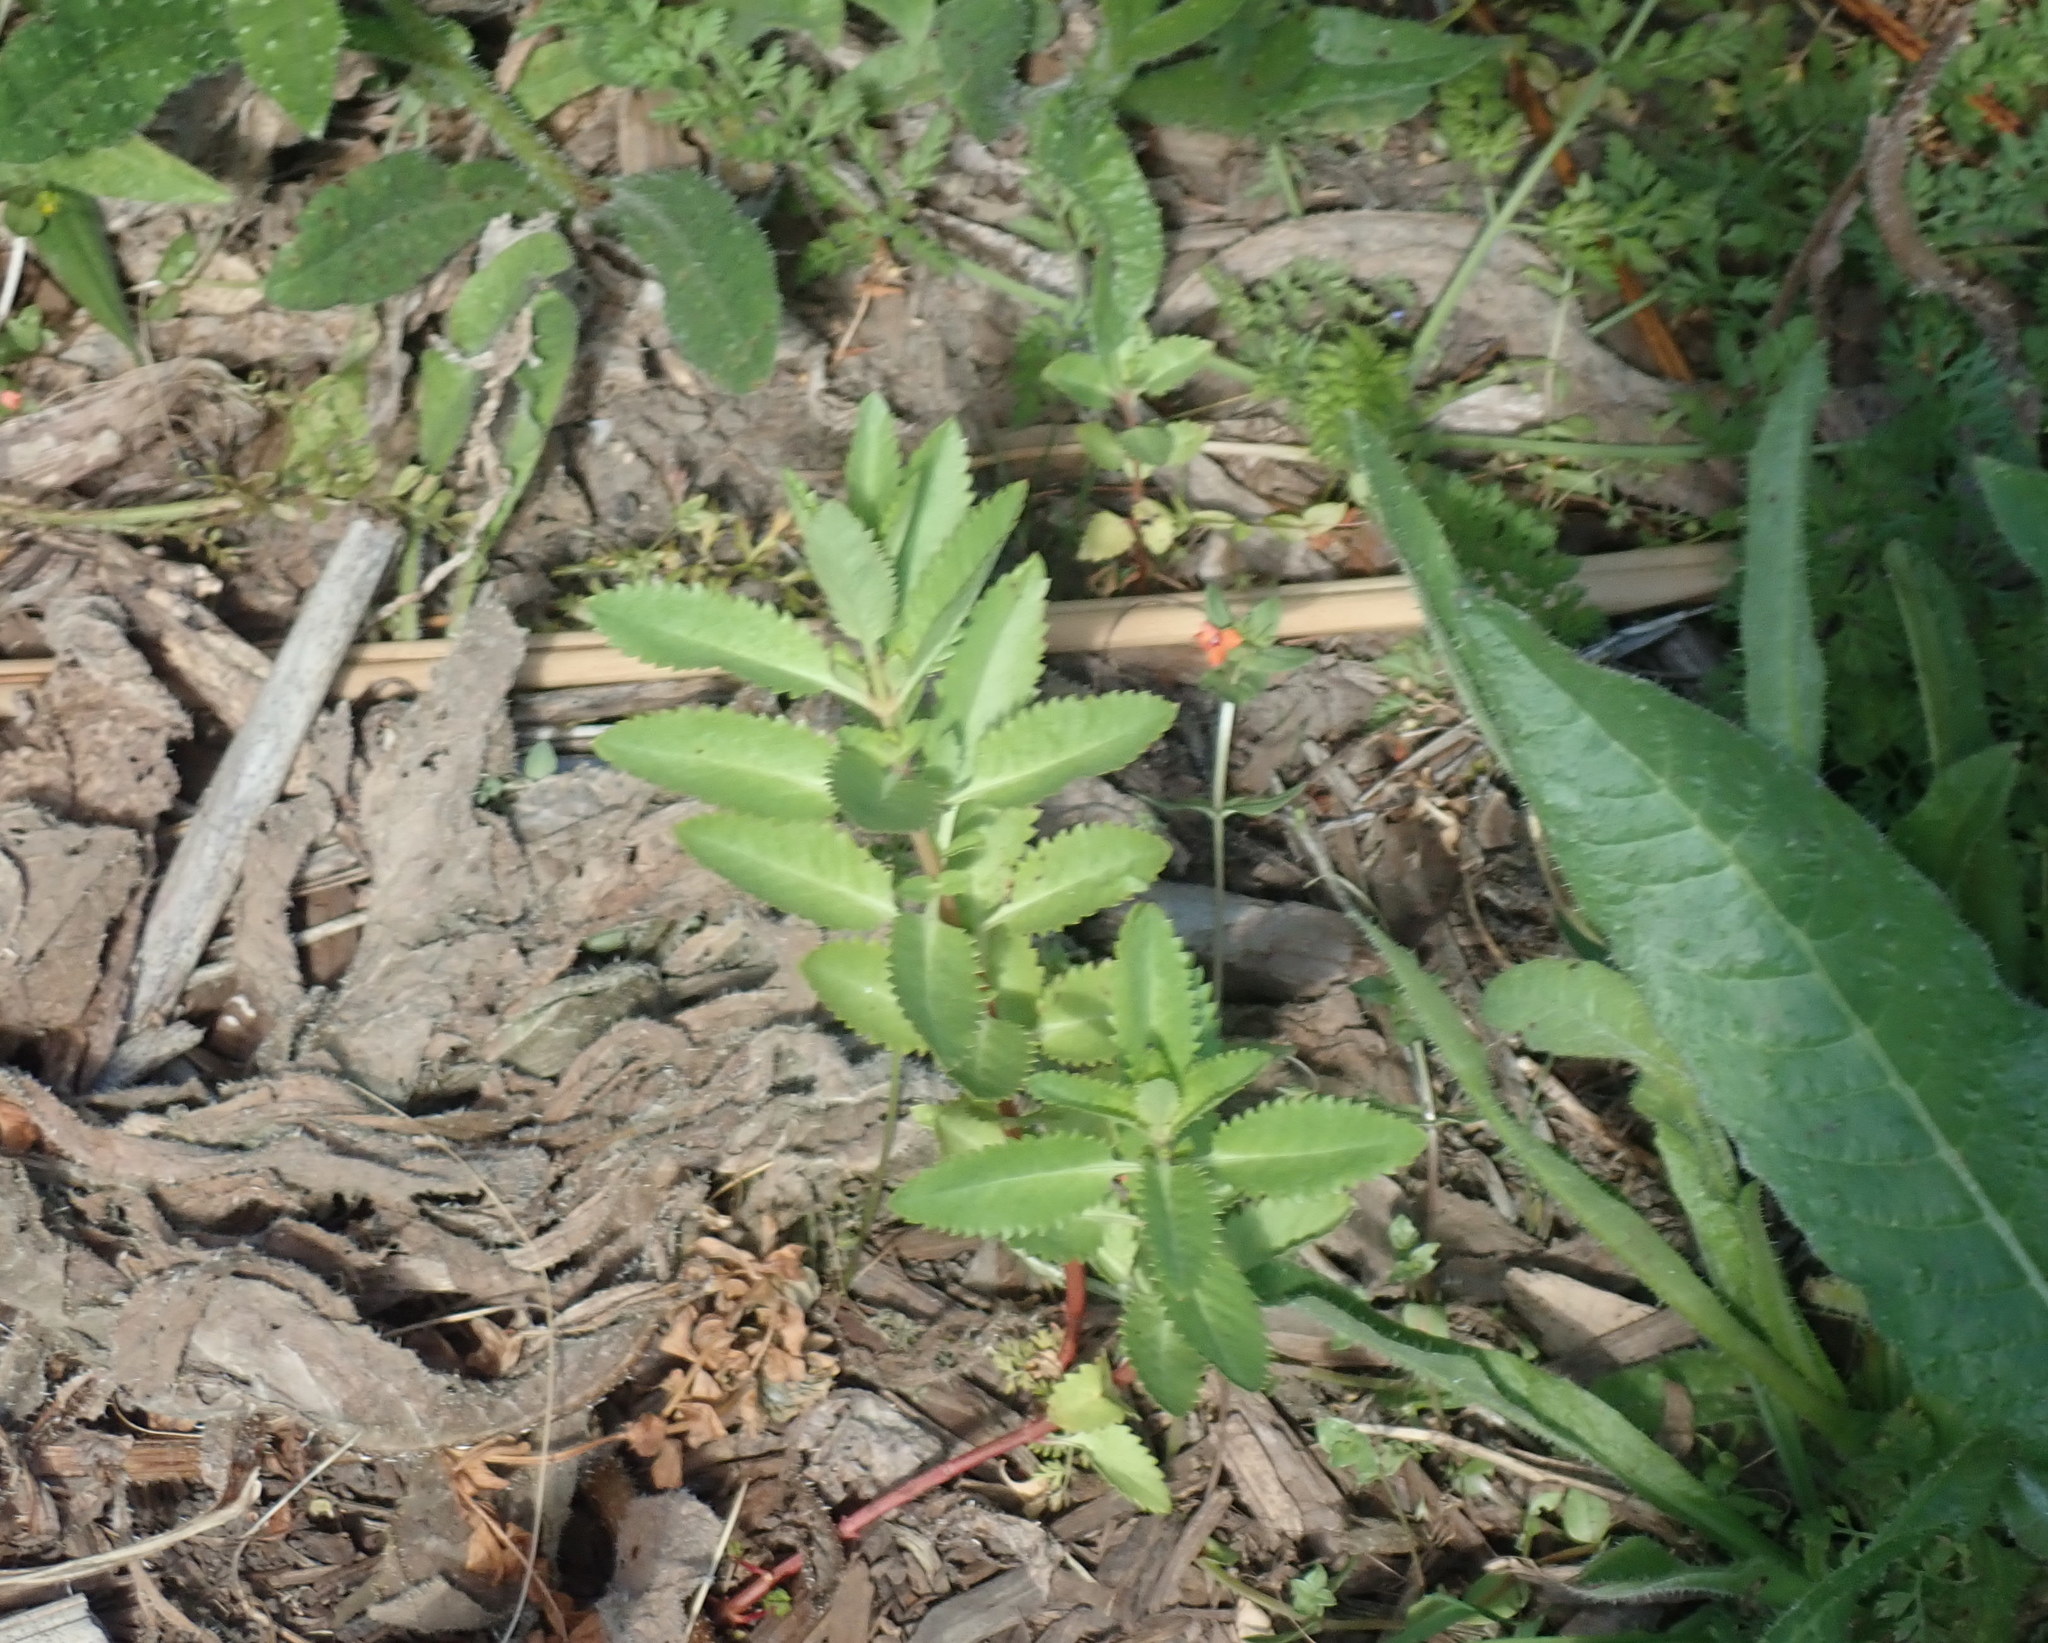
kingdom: Plantae
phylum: Tracheophyta
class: Magnoliopsida
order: Saxifragales
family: Haloragaceae
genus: Haloragis
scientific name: Haloragis erecta
